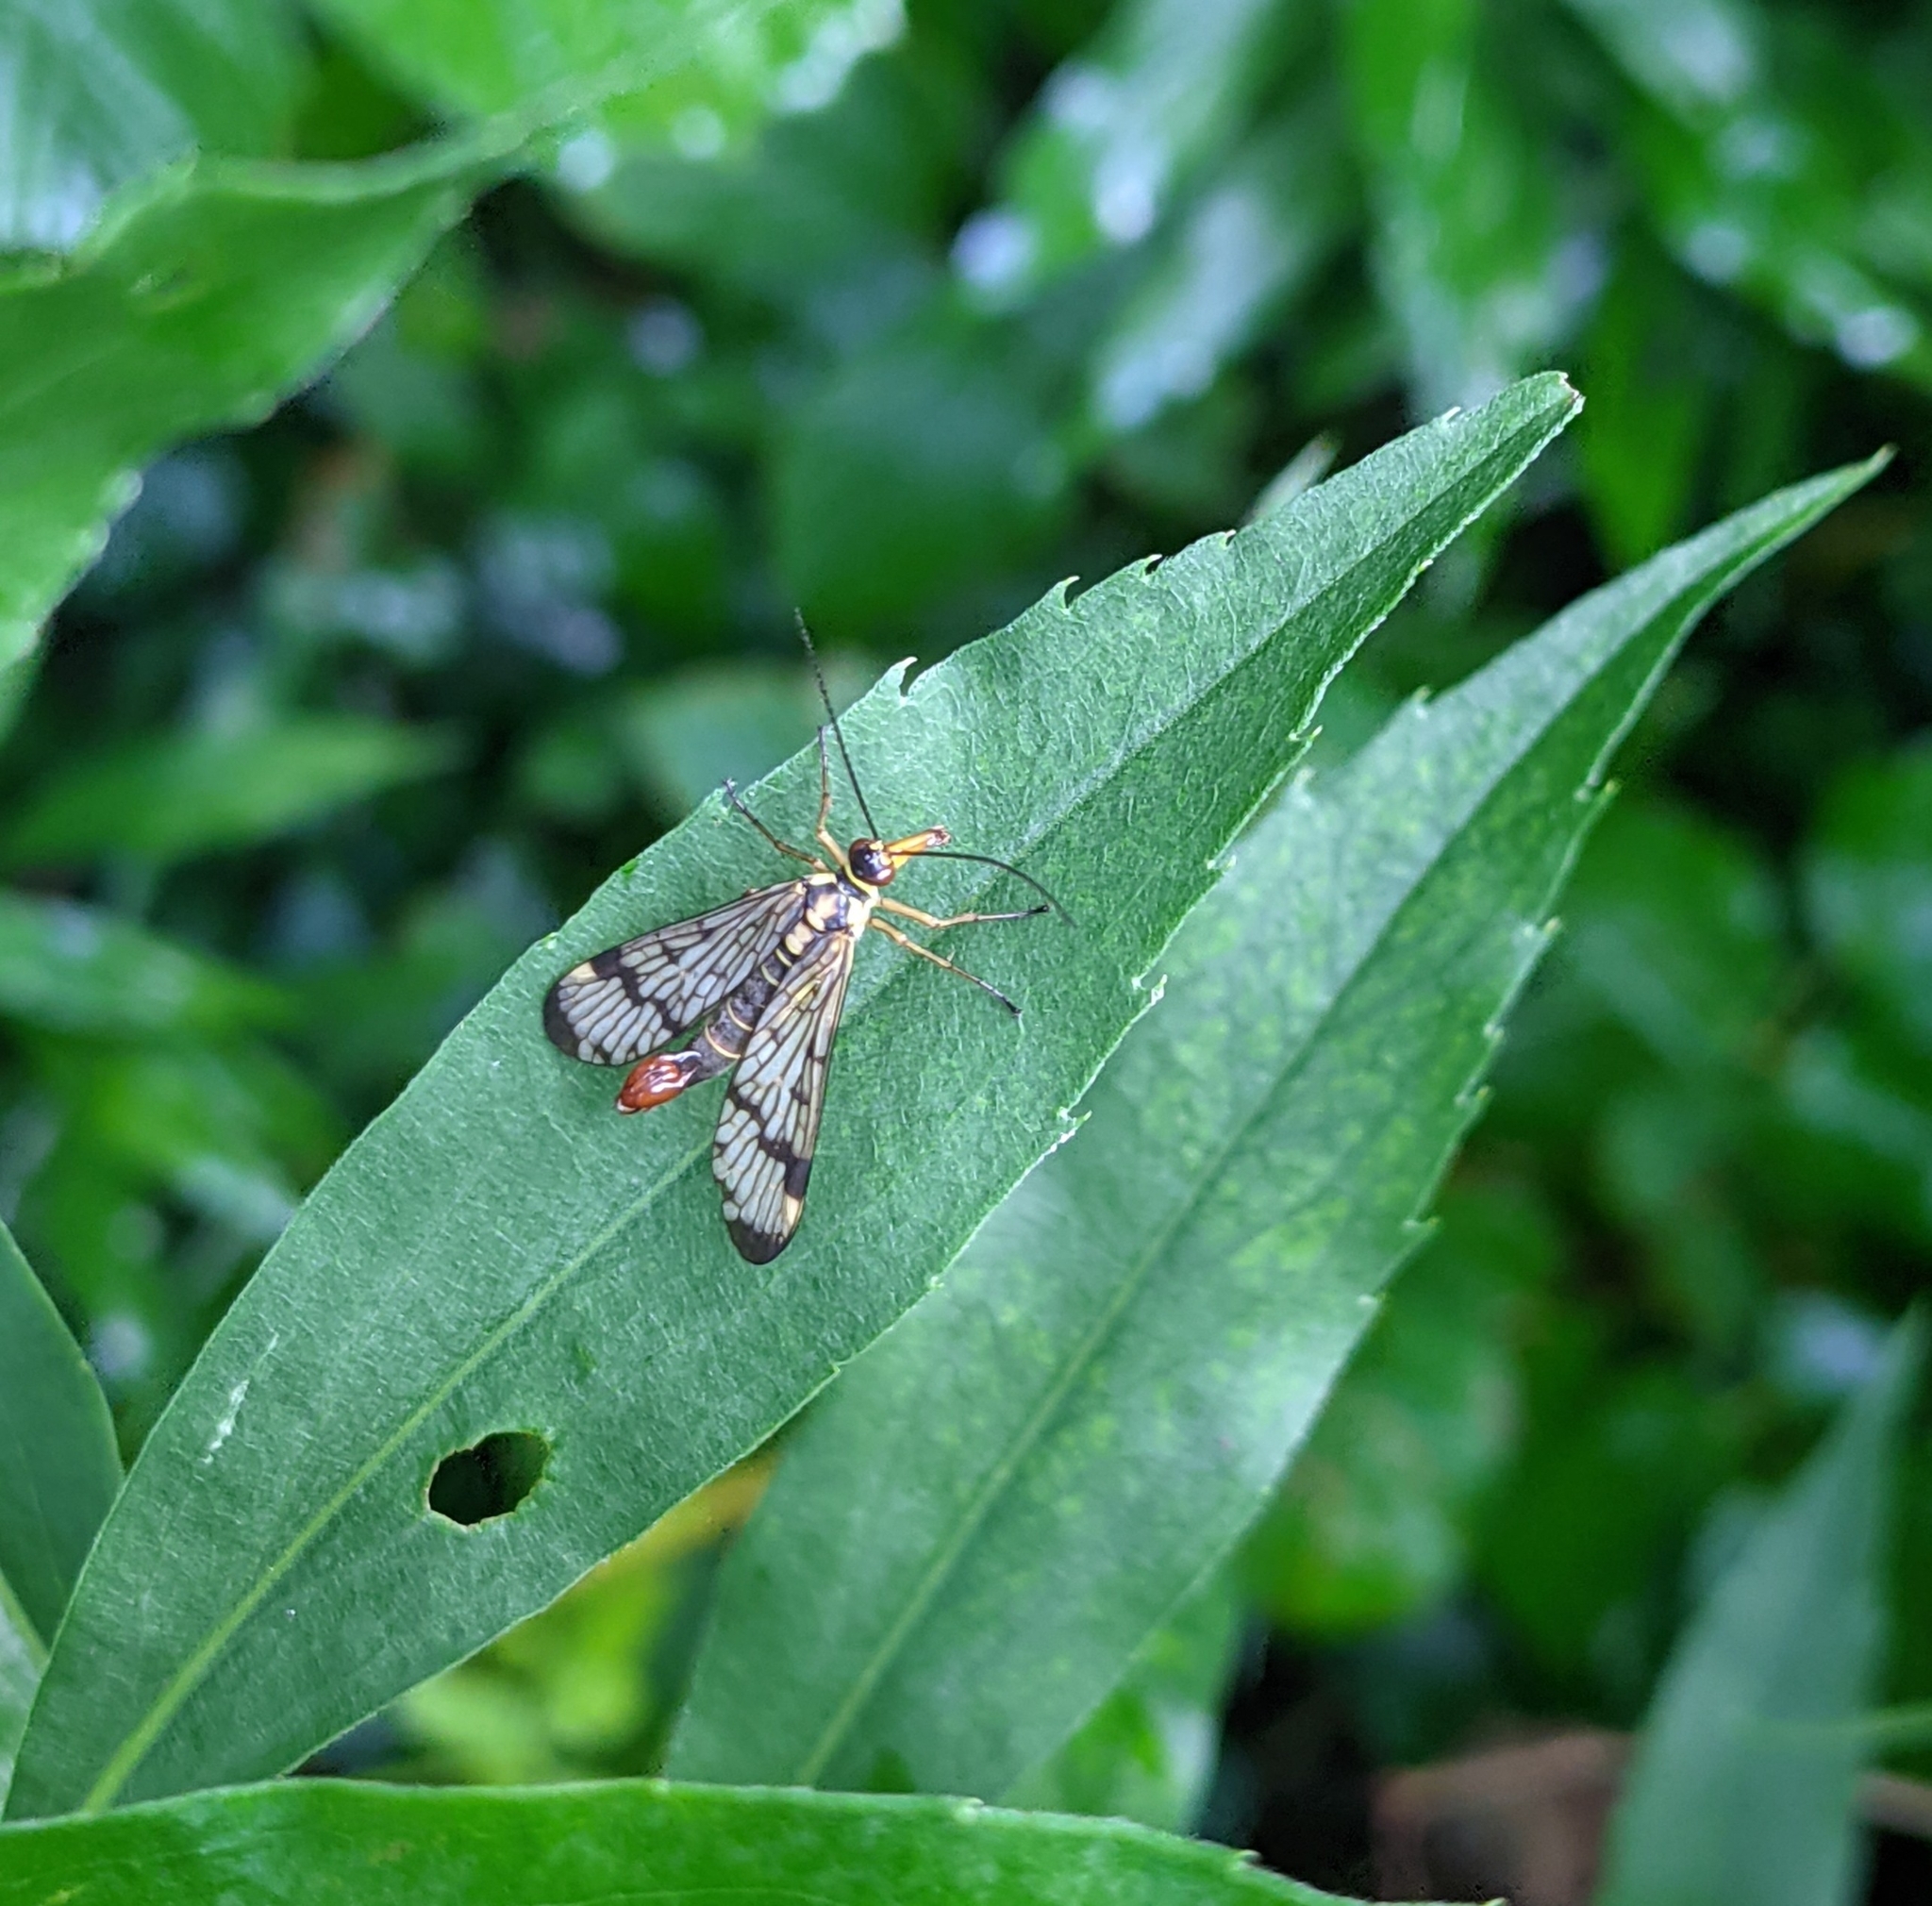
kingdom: Animalia
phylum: Arthropoda
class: Insecta
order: Mecoptera
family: Panorpidae
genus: Panorpa
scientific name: Panorpa communis
